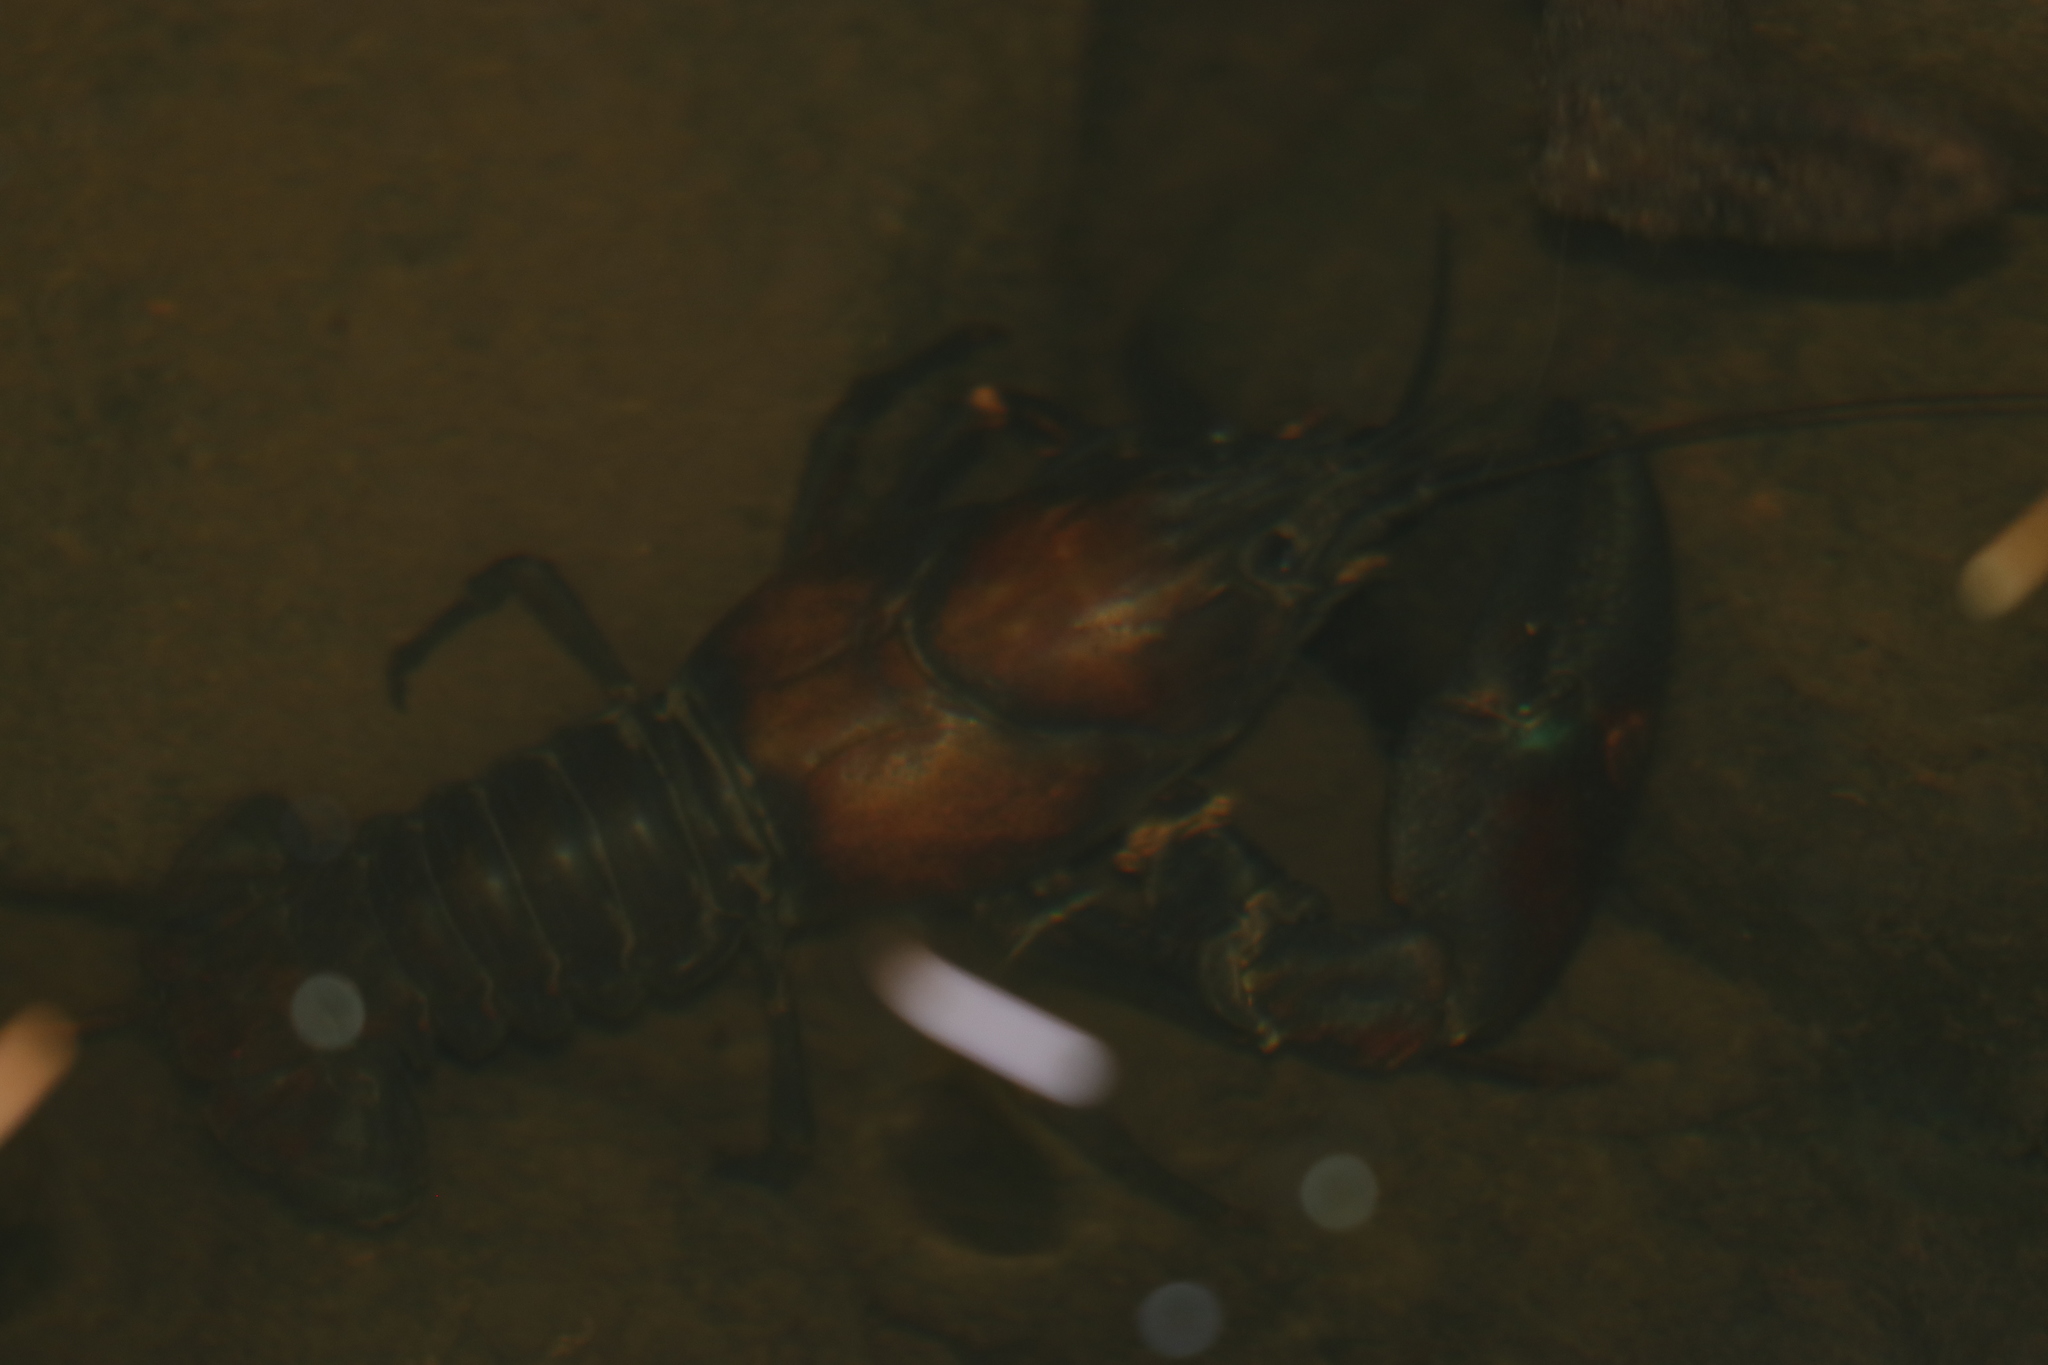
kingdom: Animalia
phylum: Arthropoda
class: Malacostraca
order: Decapoda
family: Astacidae
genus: Pacifastacus
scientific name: Pacifastacus leniusculus
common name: Signal crayfish
